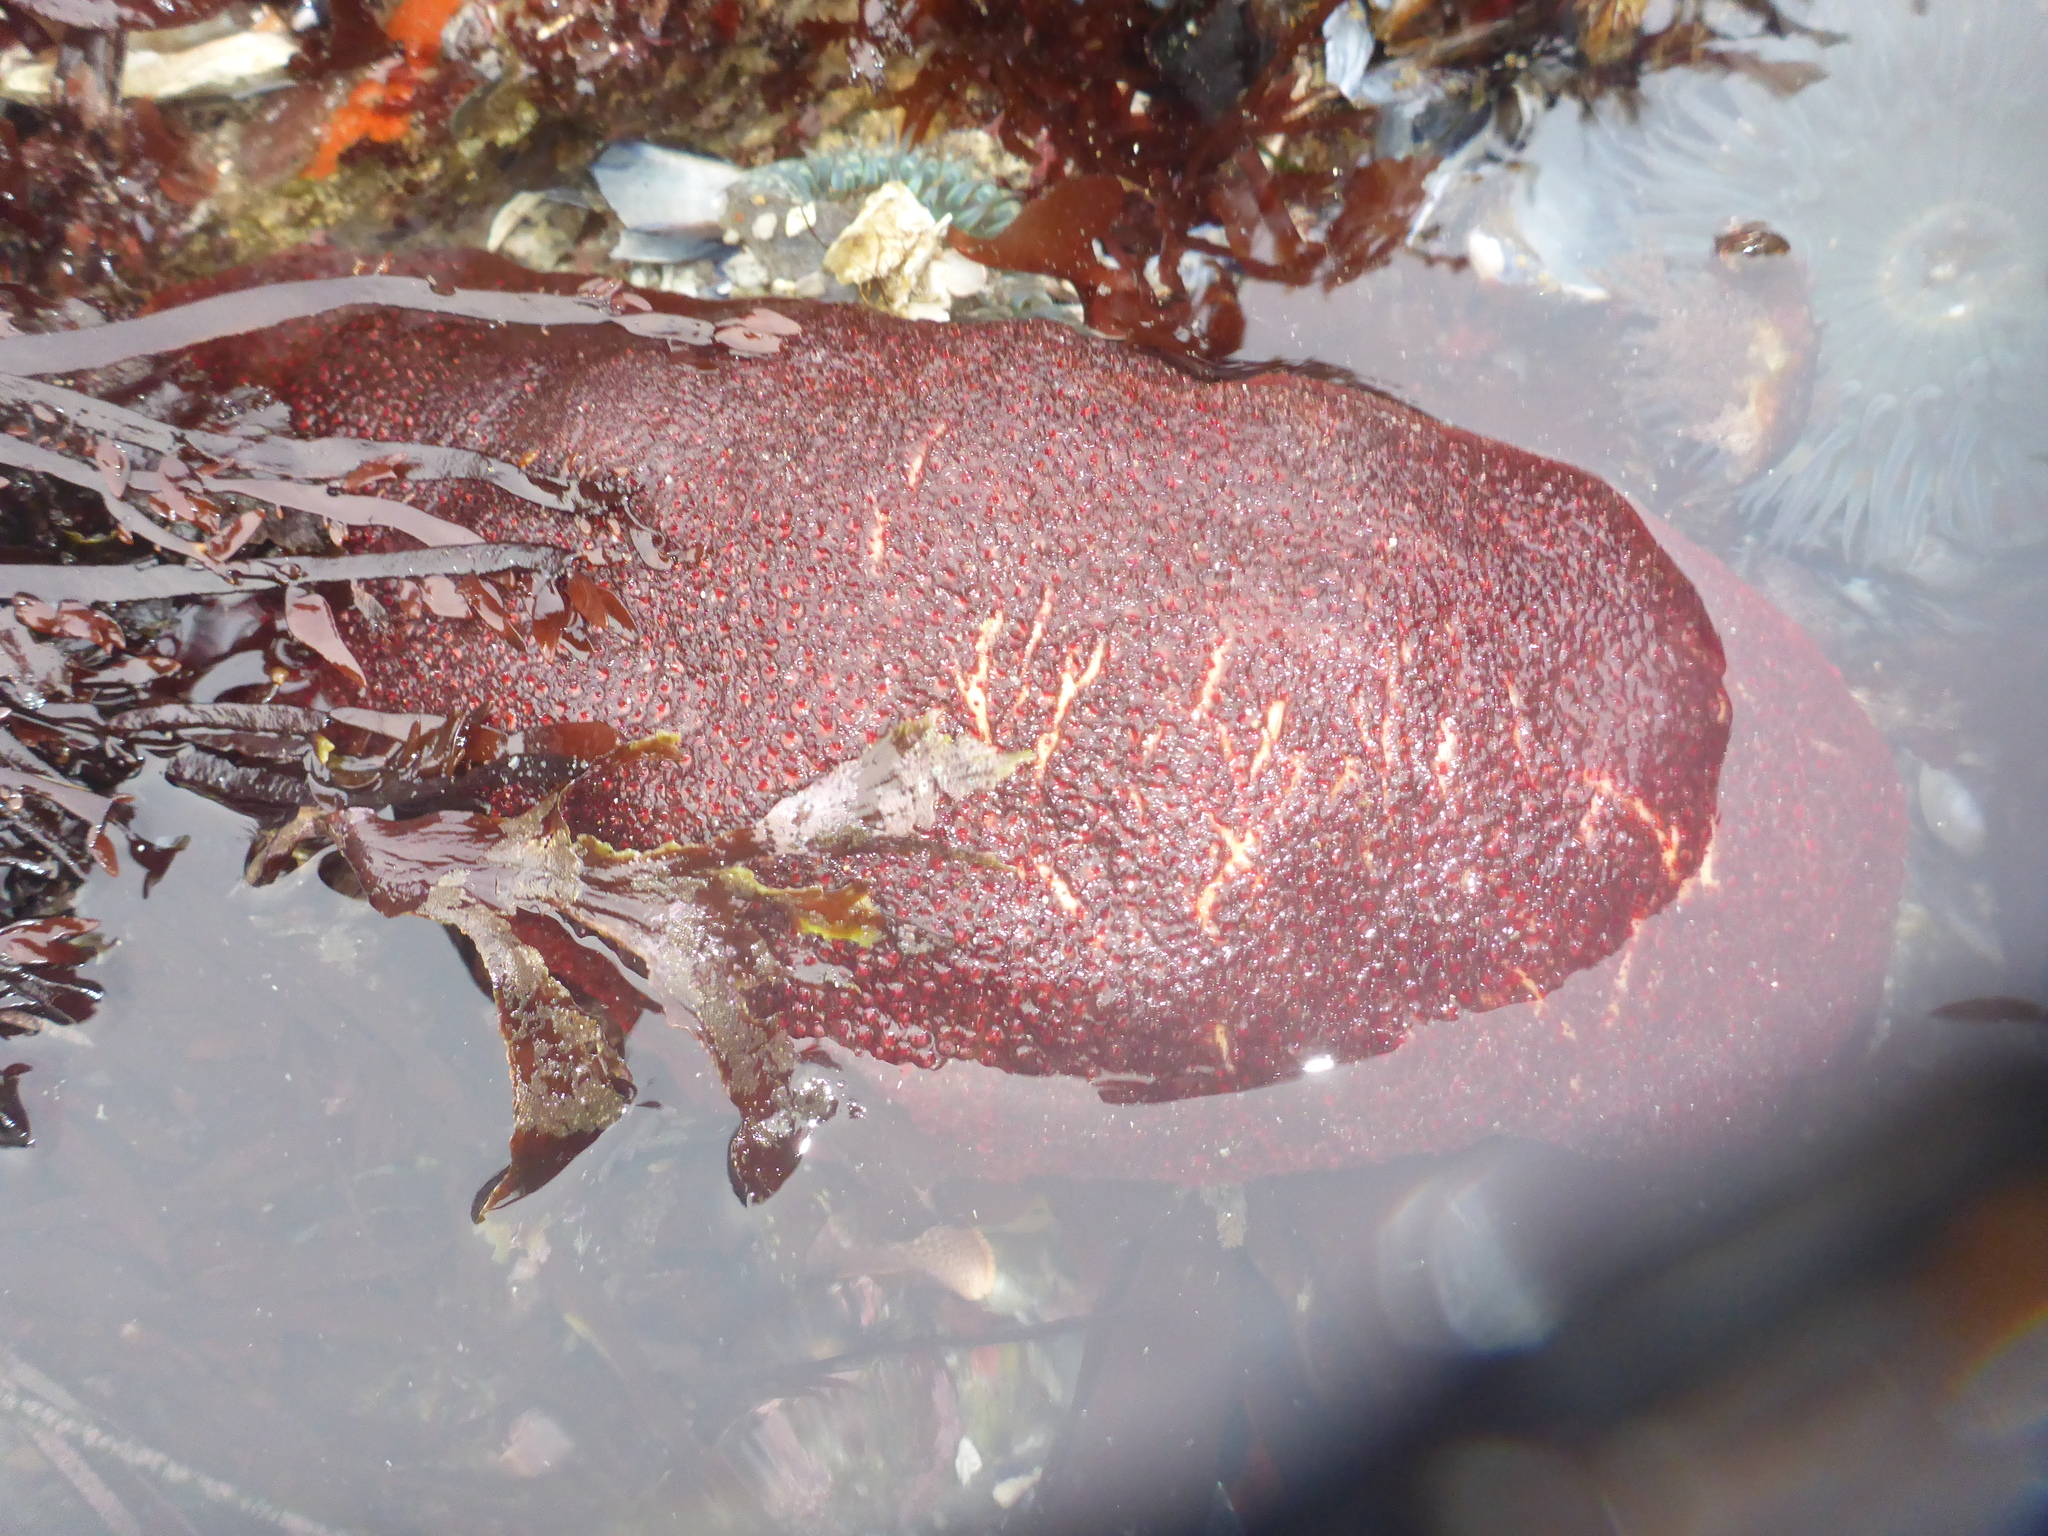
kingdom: Animalia
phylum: Mollusca
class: Polyplacophora
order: Chitonida
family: Acanthochitonidae
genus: Cryptochiton
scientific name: Cryptochiton stelleri
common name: Giant pacific chiton
